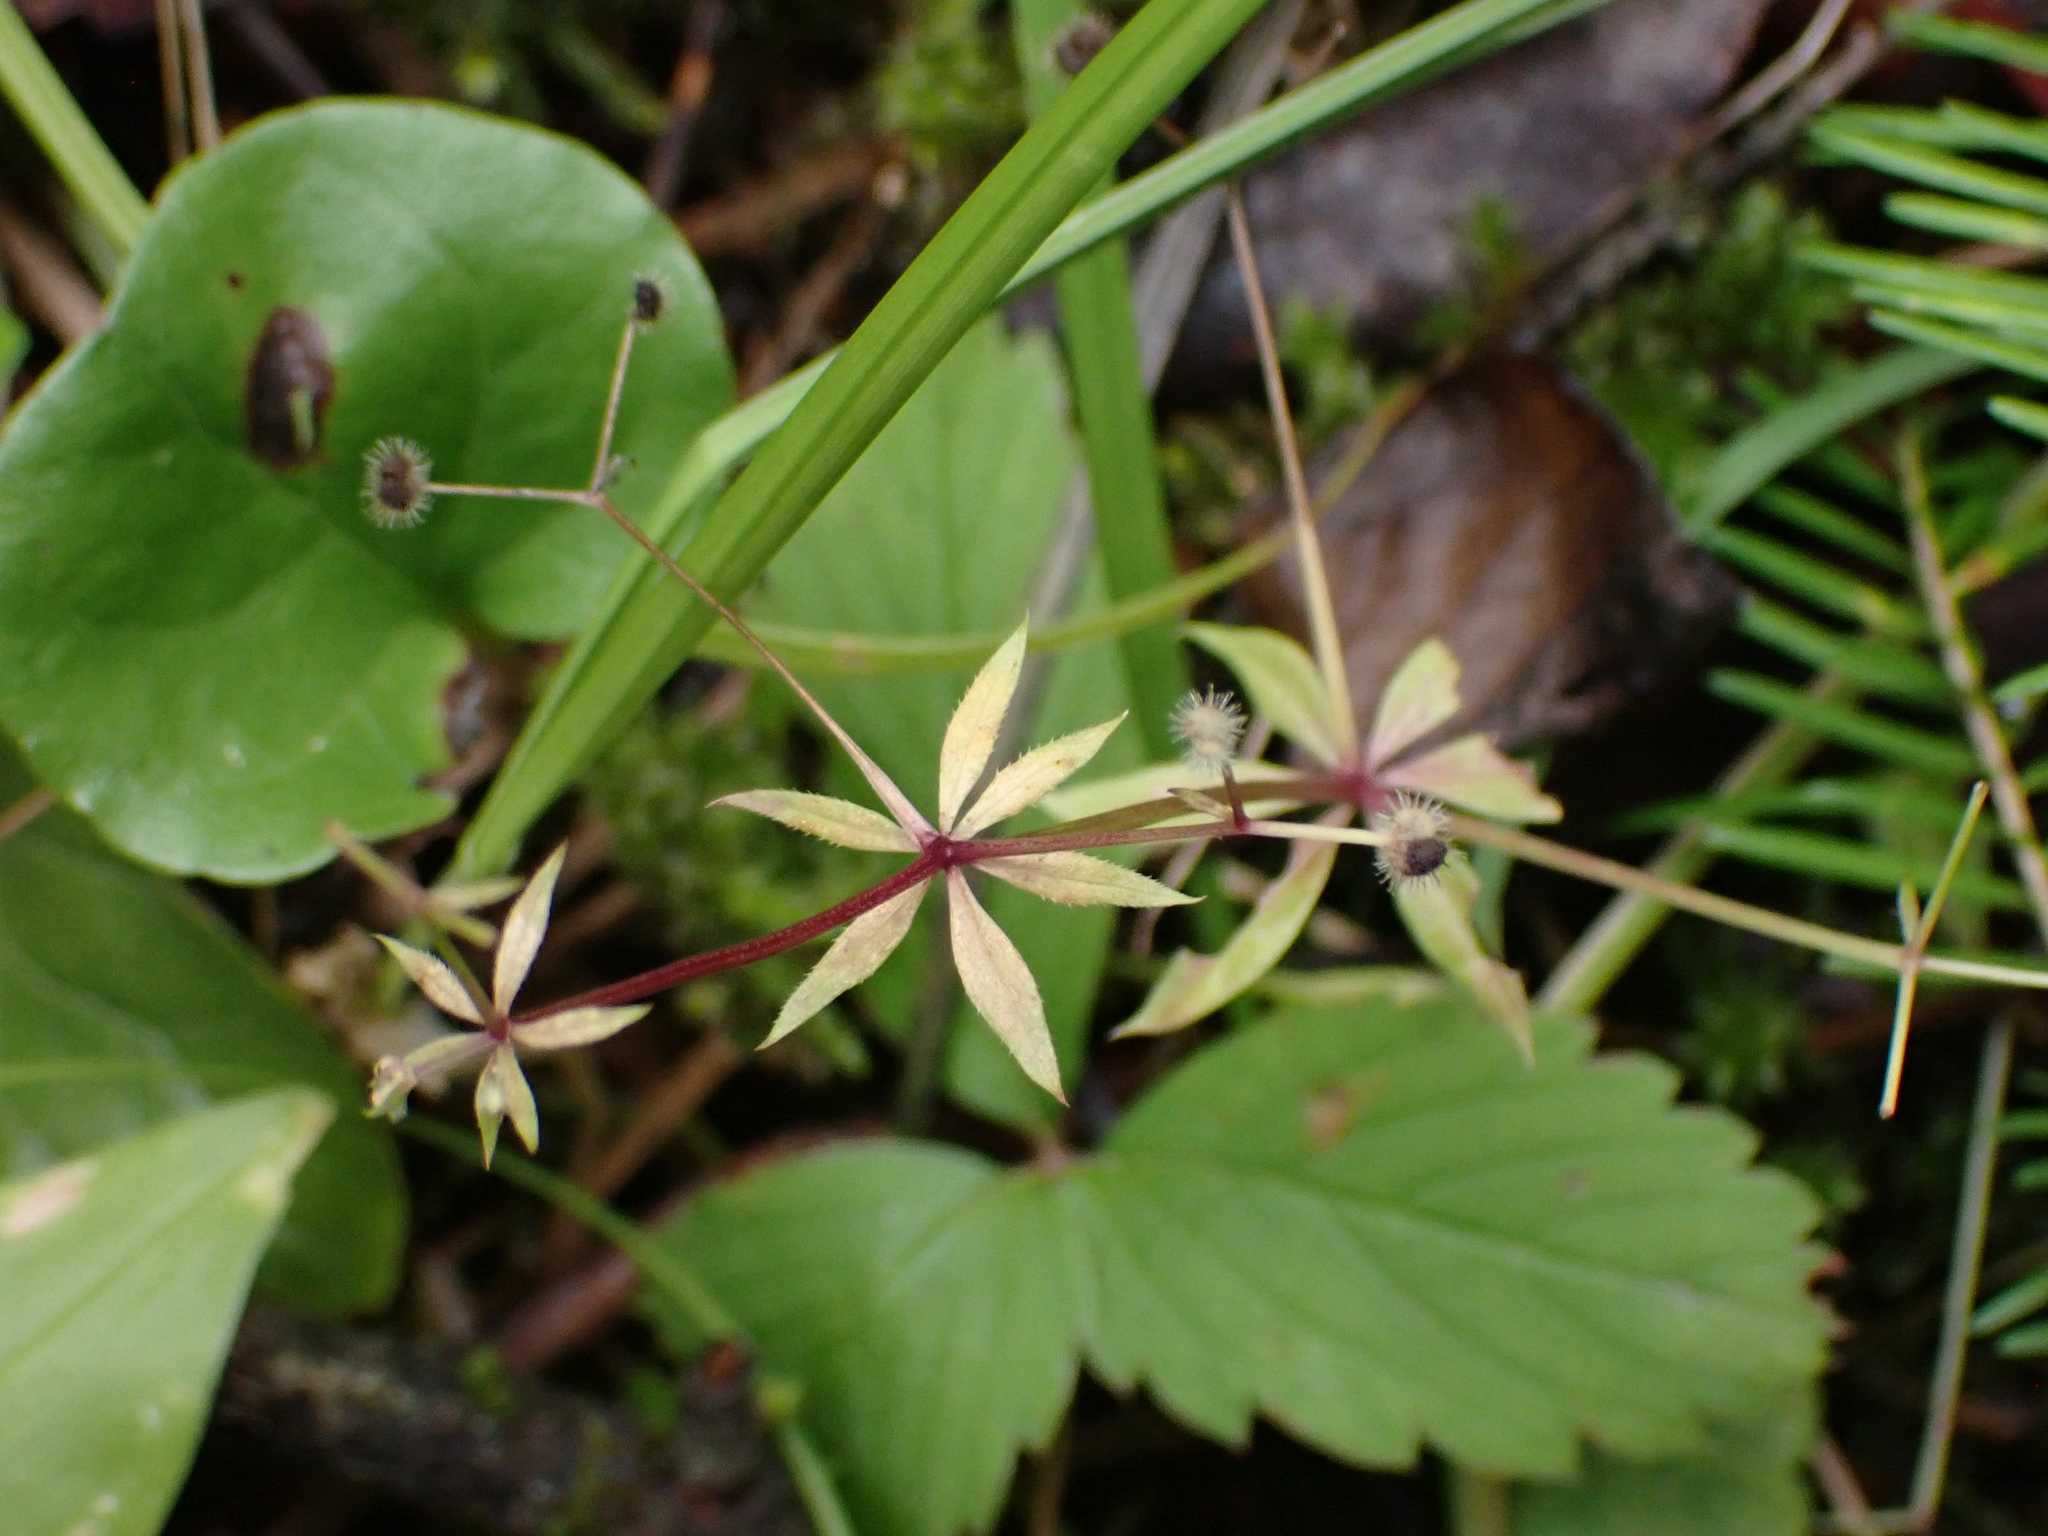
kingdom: Plantae
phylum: Tracheophyta
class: Magnoliopsida
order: Gentianales
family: Rubiaceae
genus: Galium
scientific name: Galium triflorum
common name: Fragrant bedstraw
